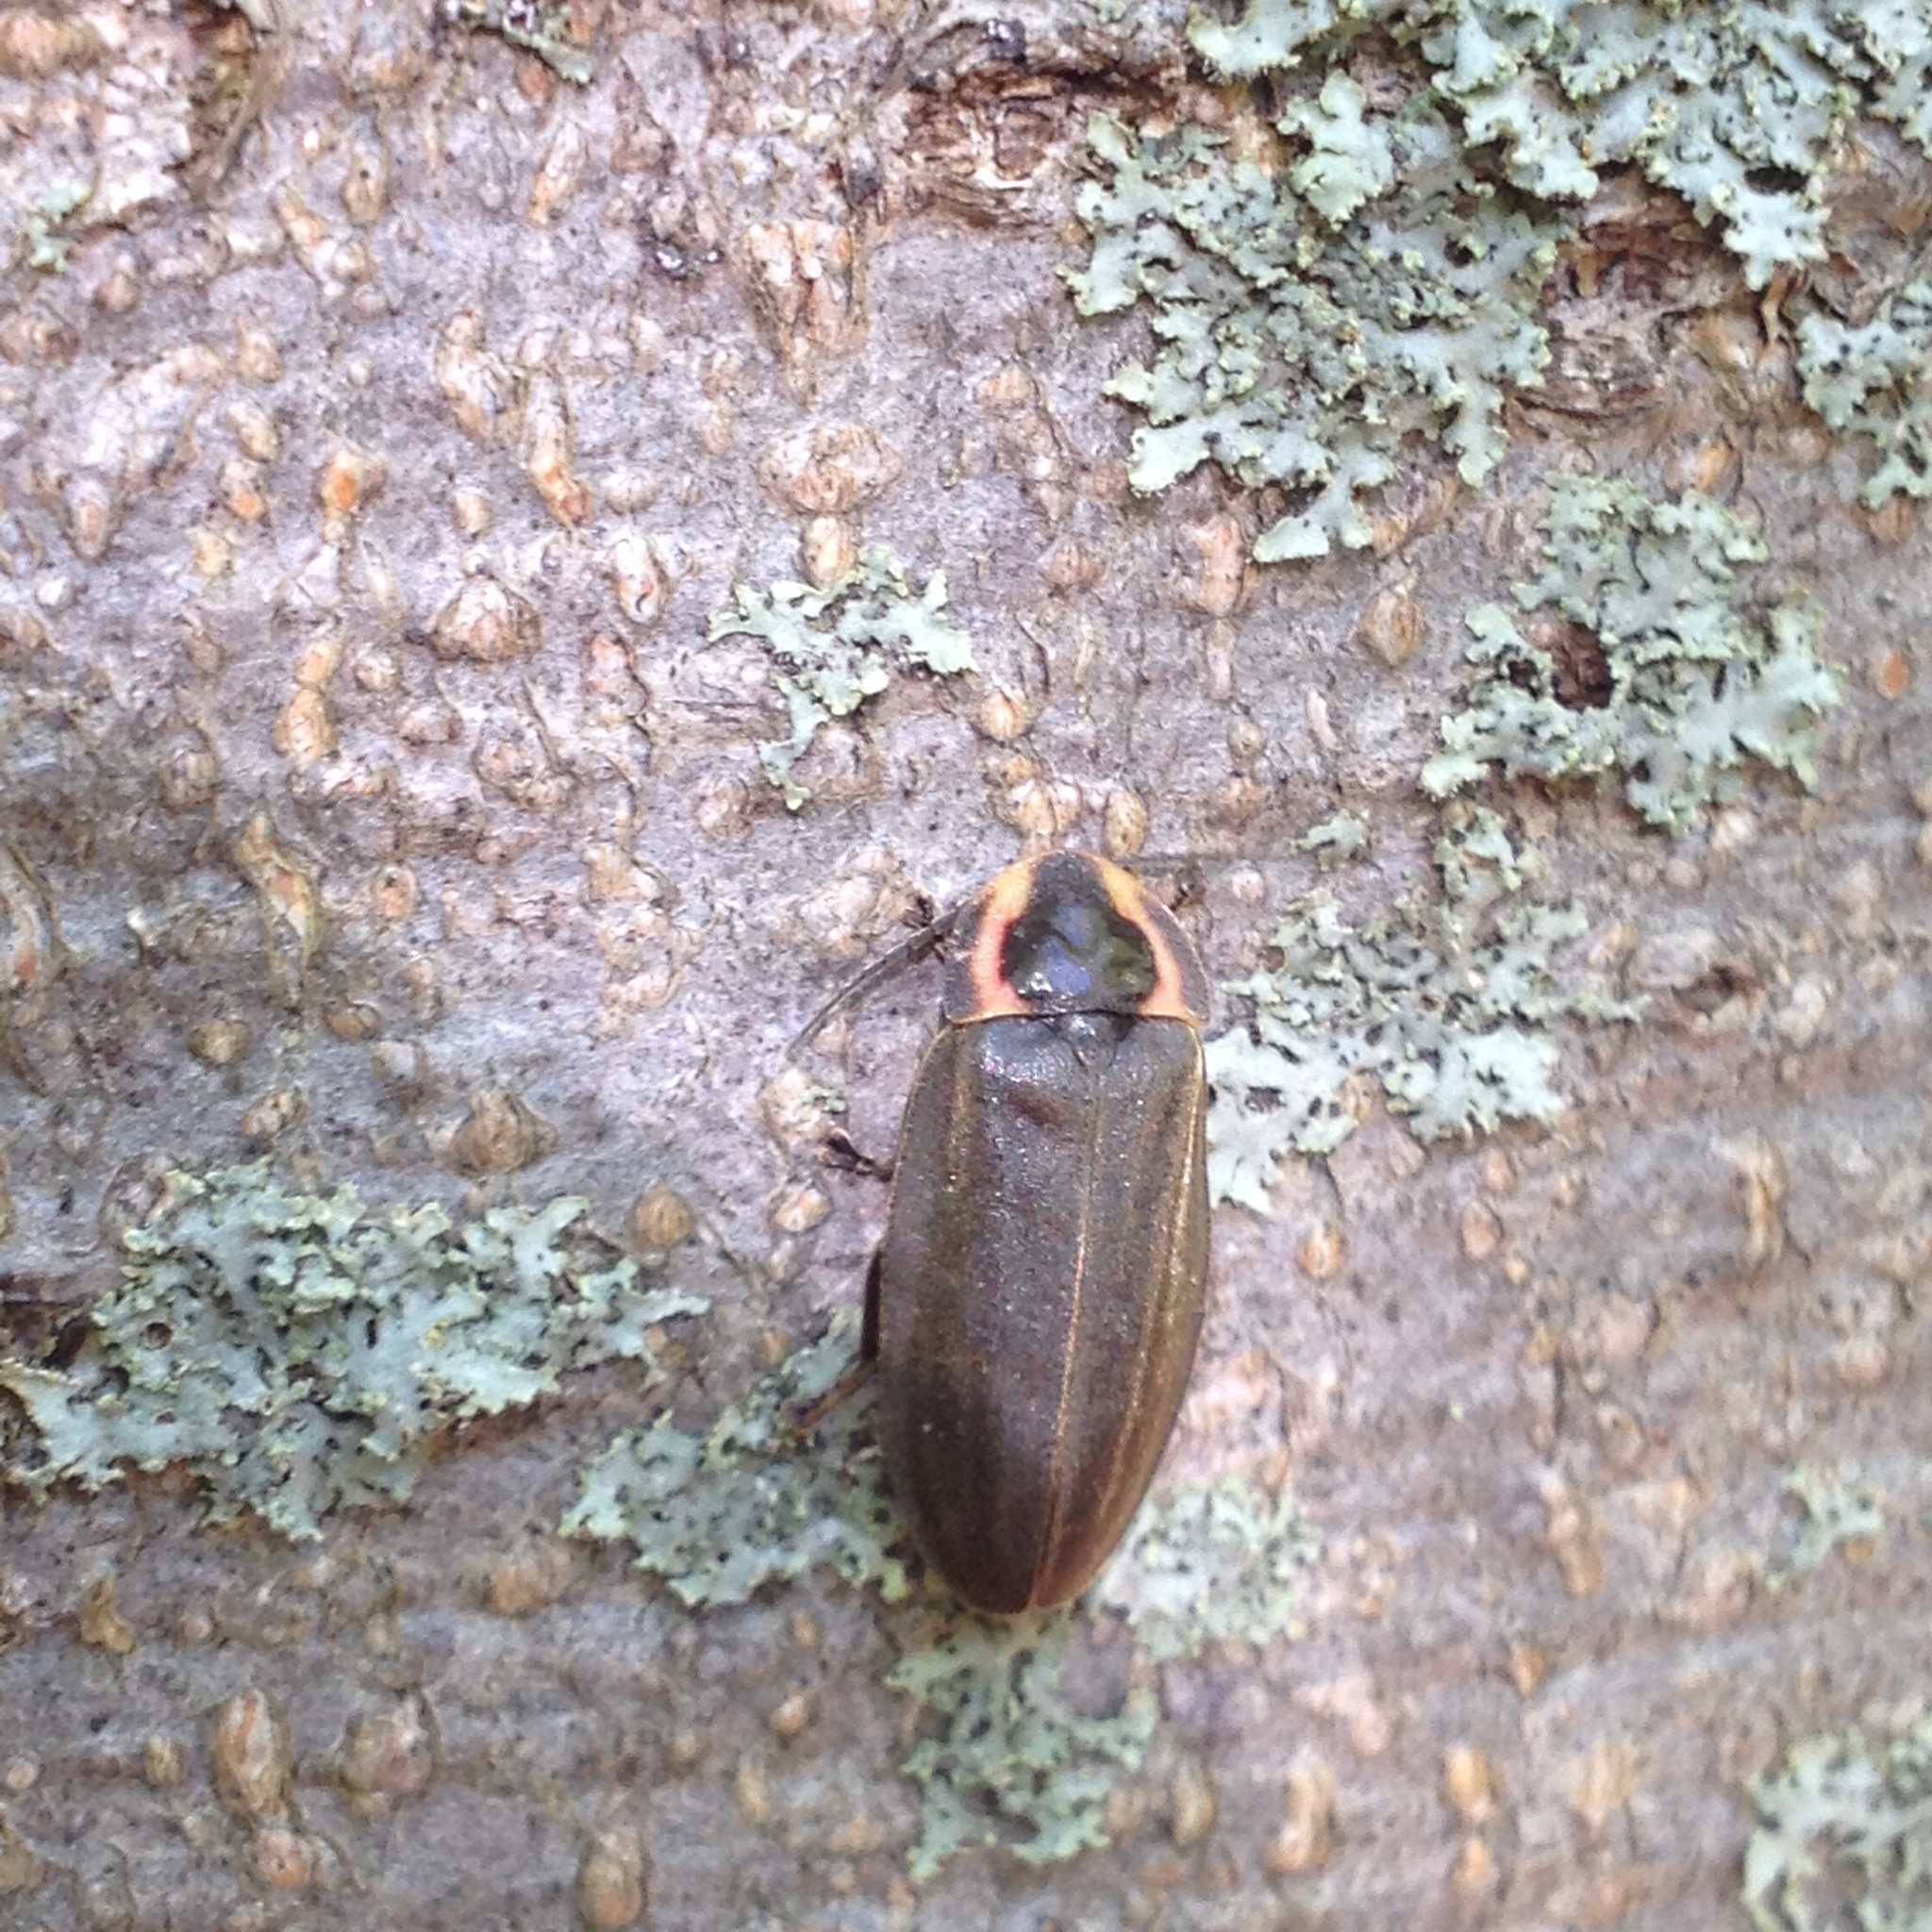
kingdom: Animalia
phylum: Arthropoda
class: Insecta
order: Coleoptera
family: Lampyridae
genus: Photinus
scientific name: Photinus corrusca
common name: Winter firefly
